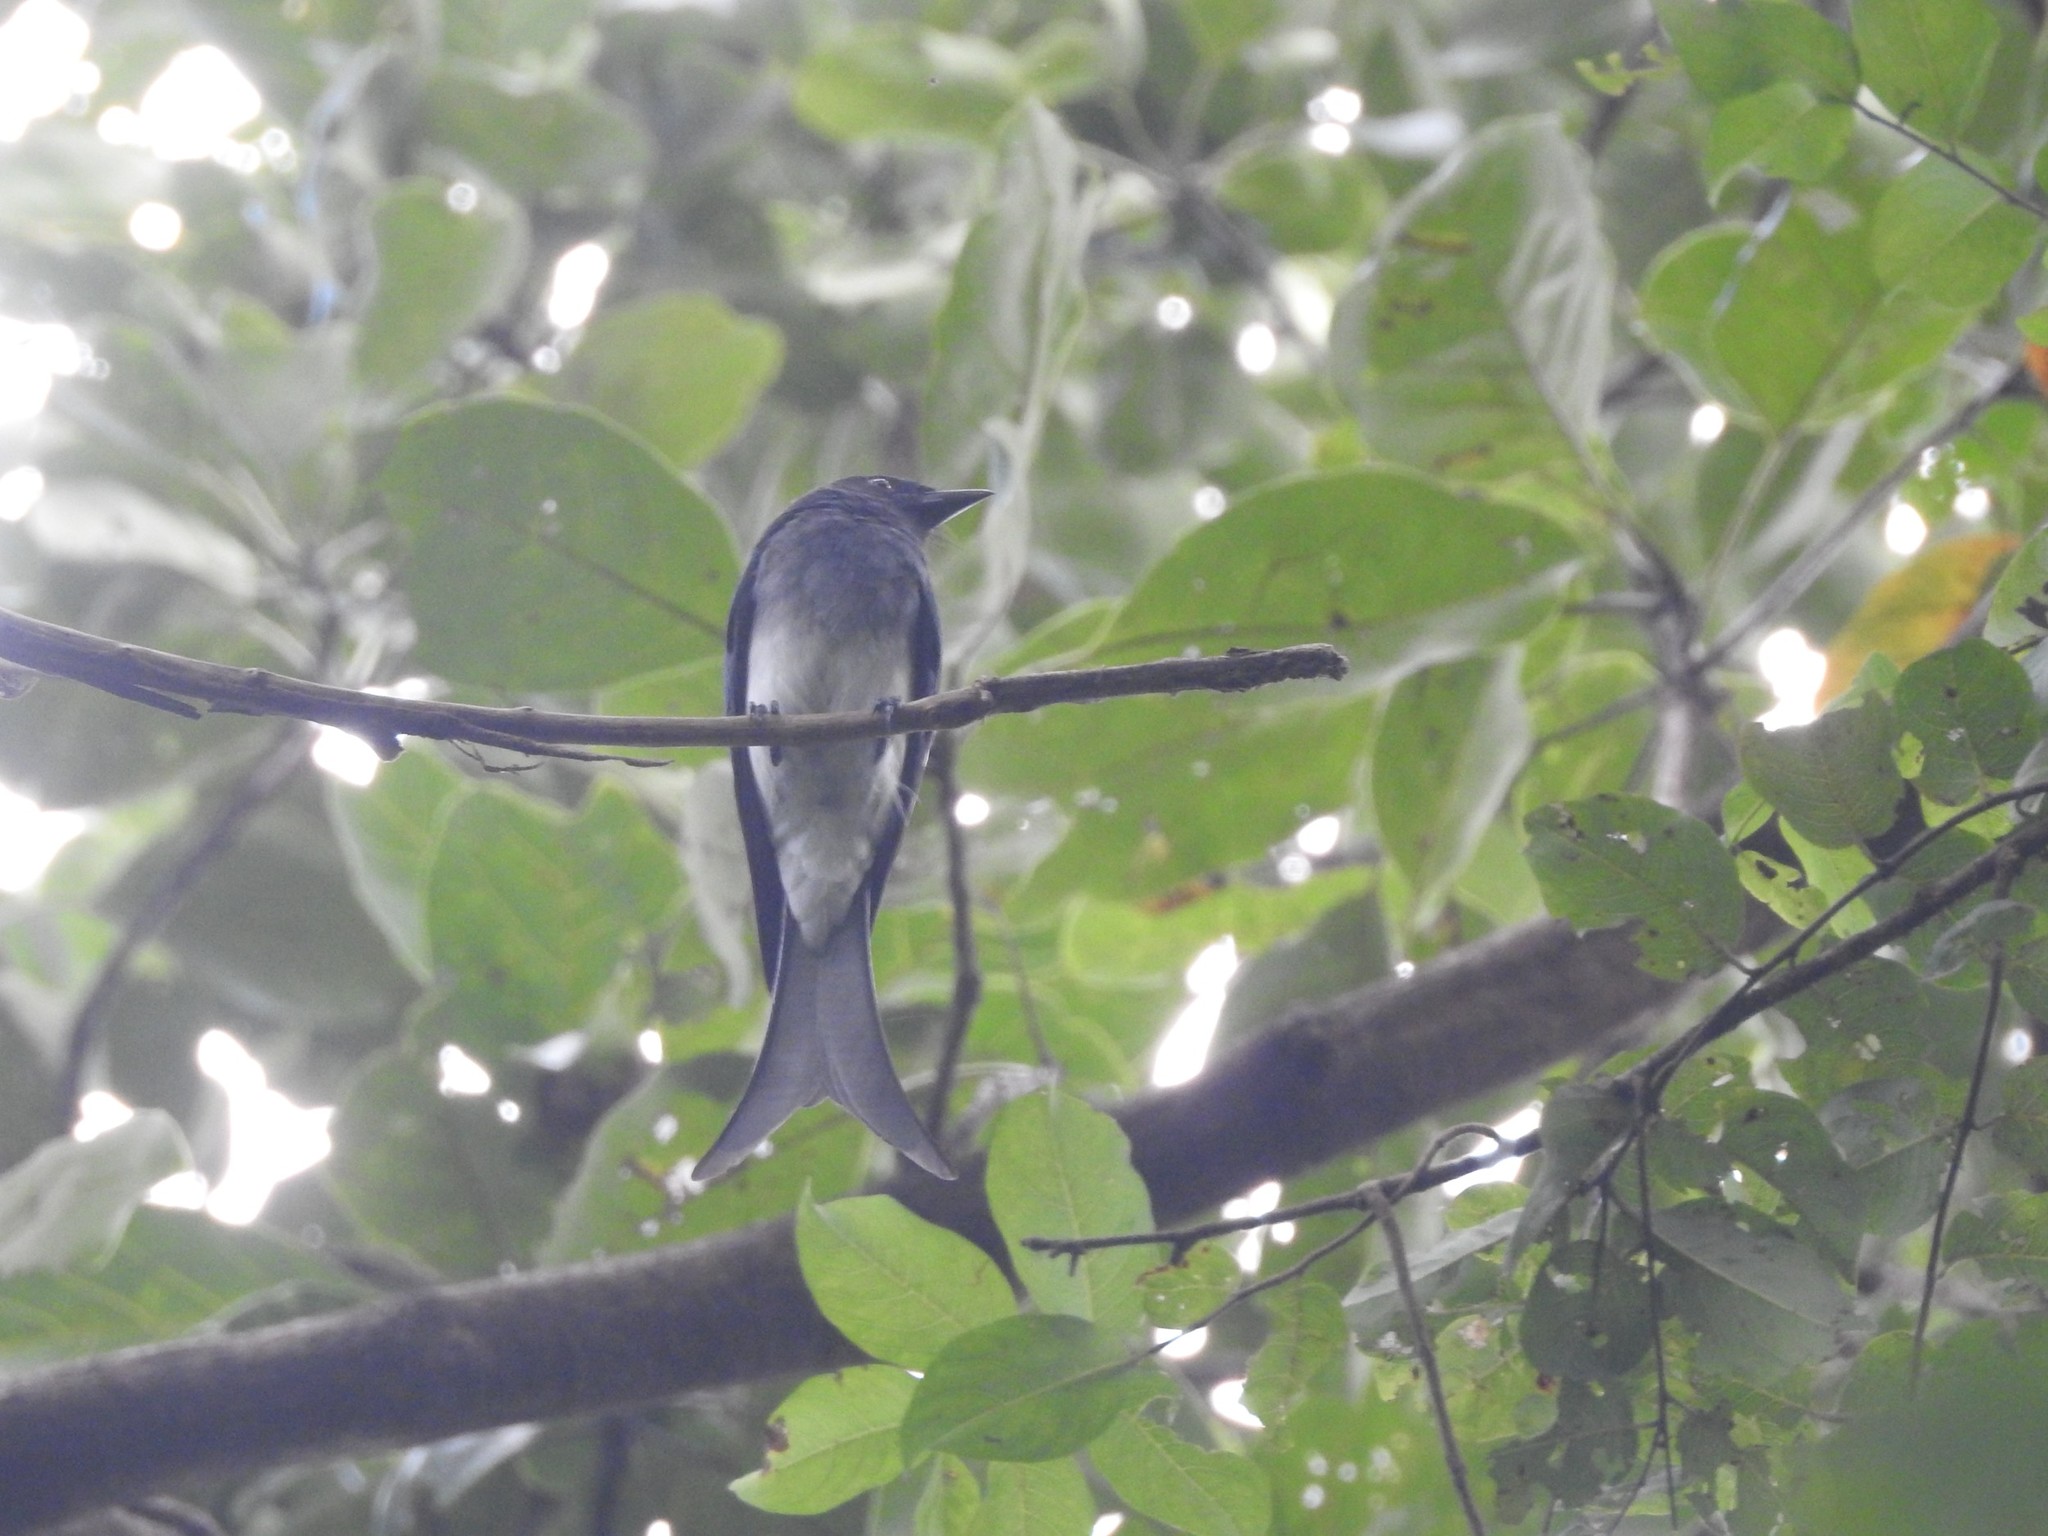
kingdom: Animalia
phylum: Chordata
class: Aves
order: Passeriformes
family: Dicruridae
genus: Dicrurus
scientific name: Dicrurus caerulescens
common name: White-bellied drongo
